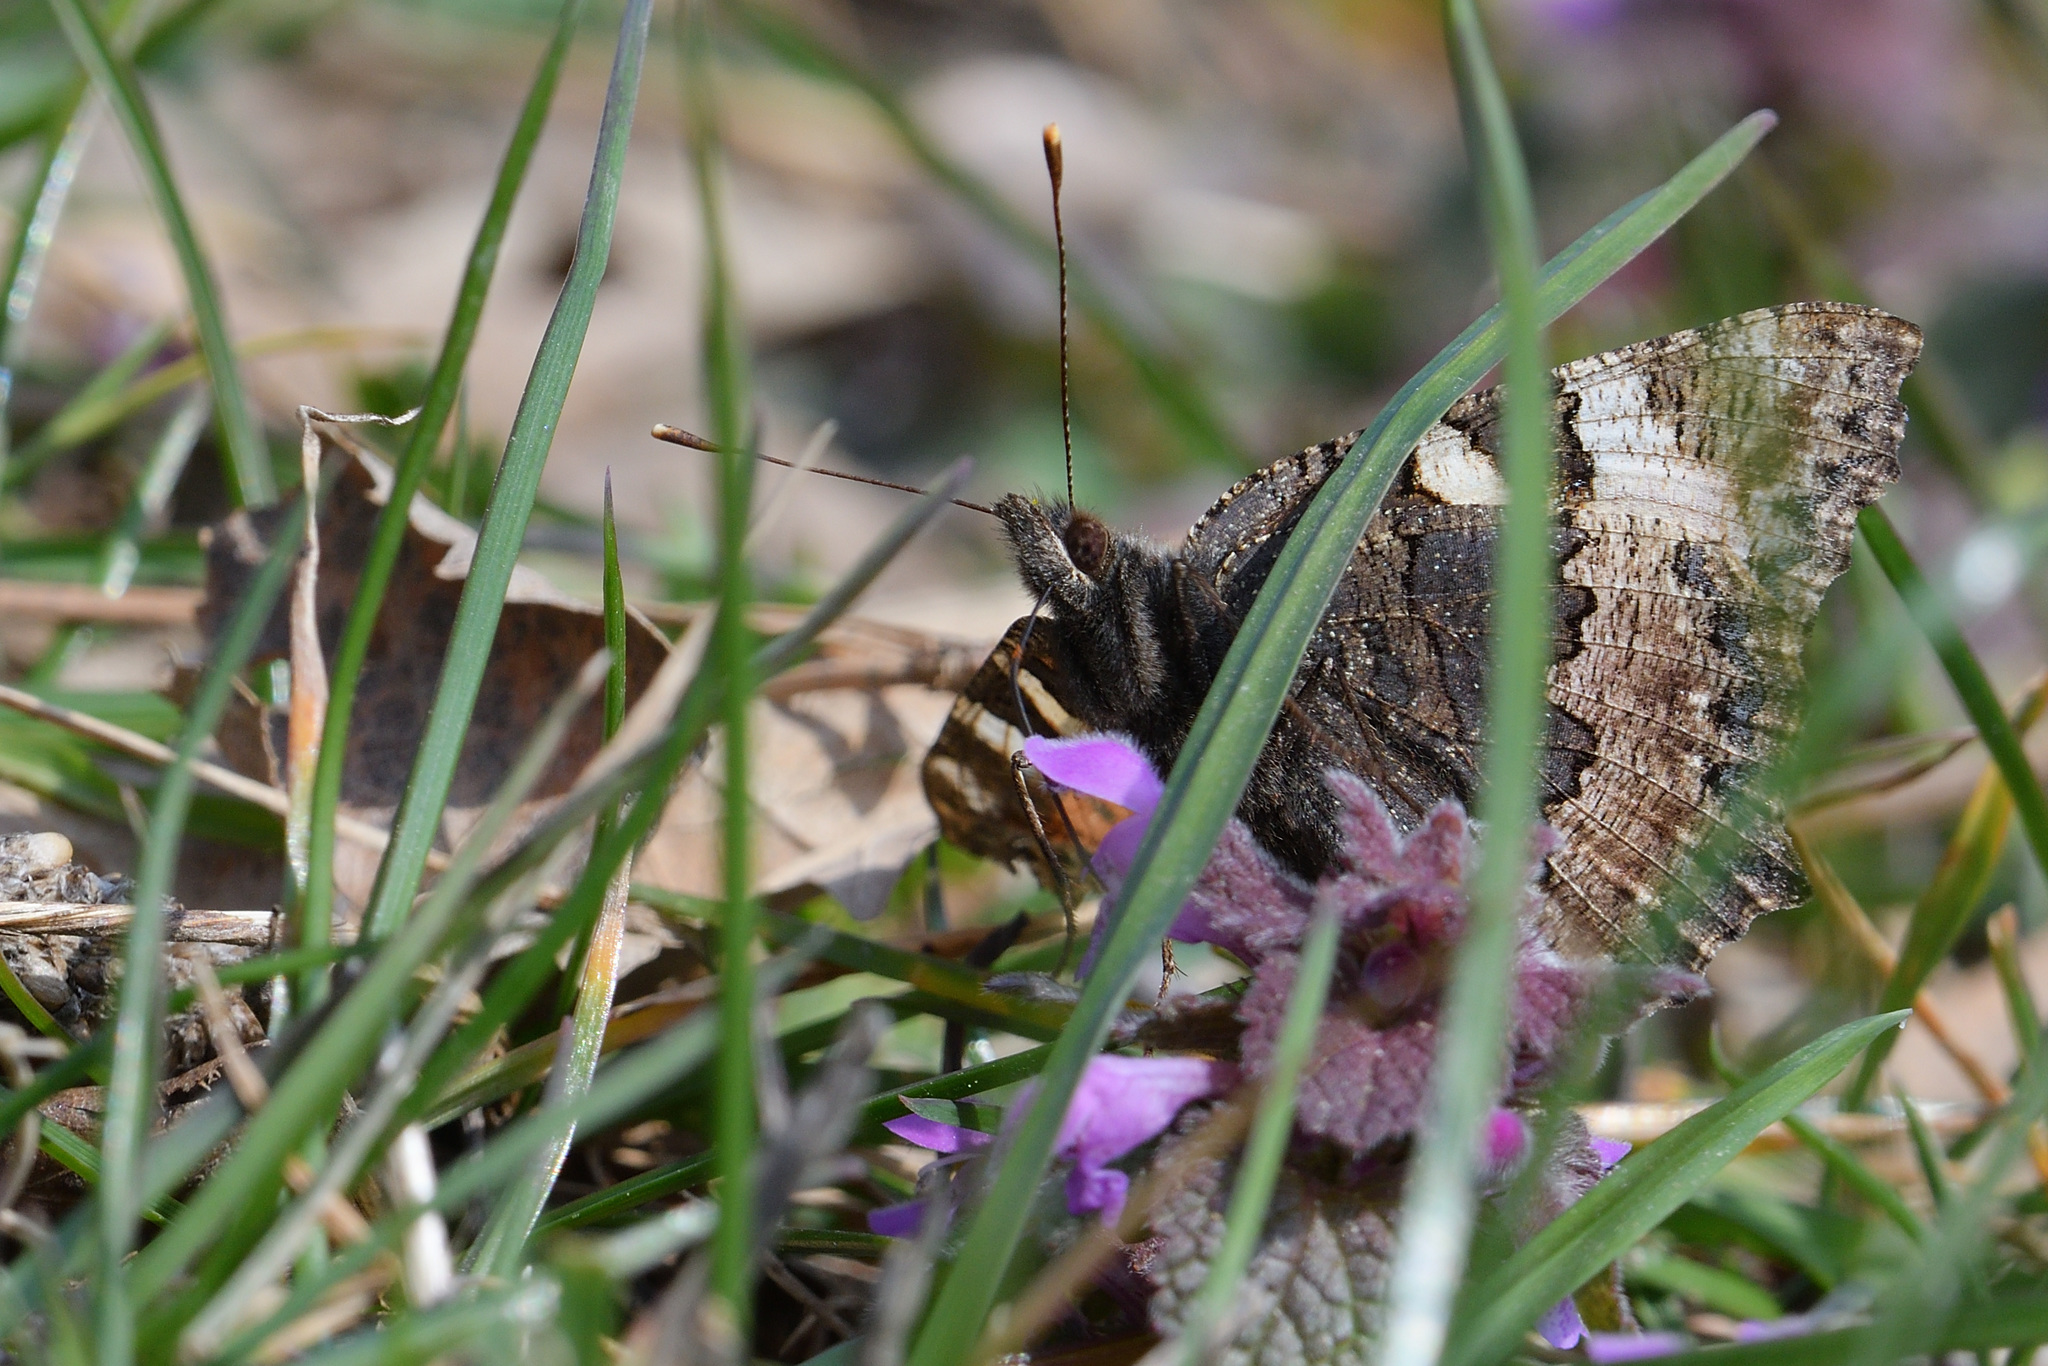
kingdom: Animalia
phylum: Arthropoda
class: Insecta
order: Lepidoptera
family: Nymphalidae
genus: Aglais
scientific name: Aglais urticae
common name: Small tortoiseshell
